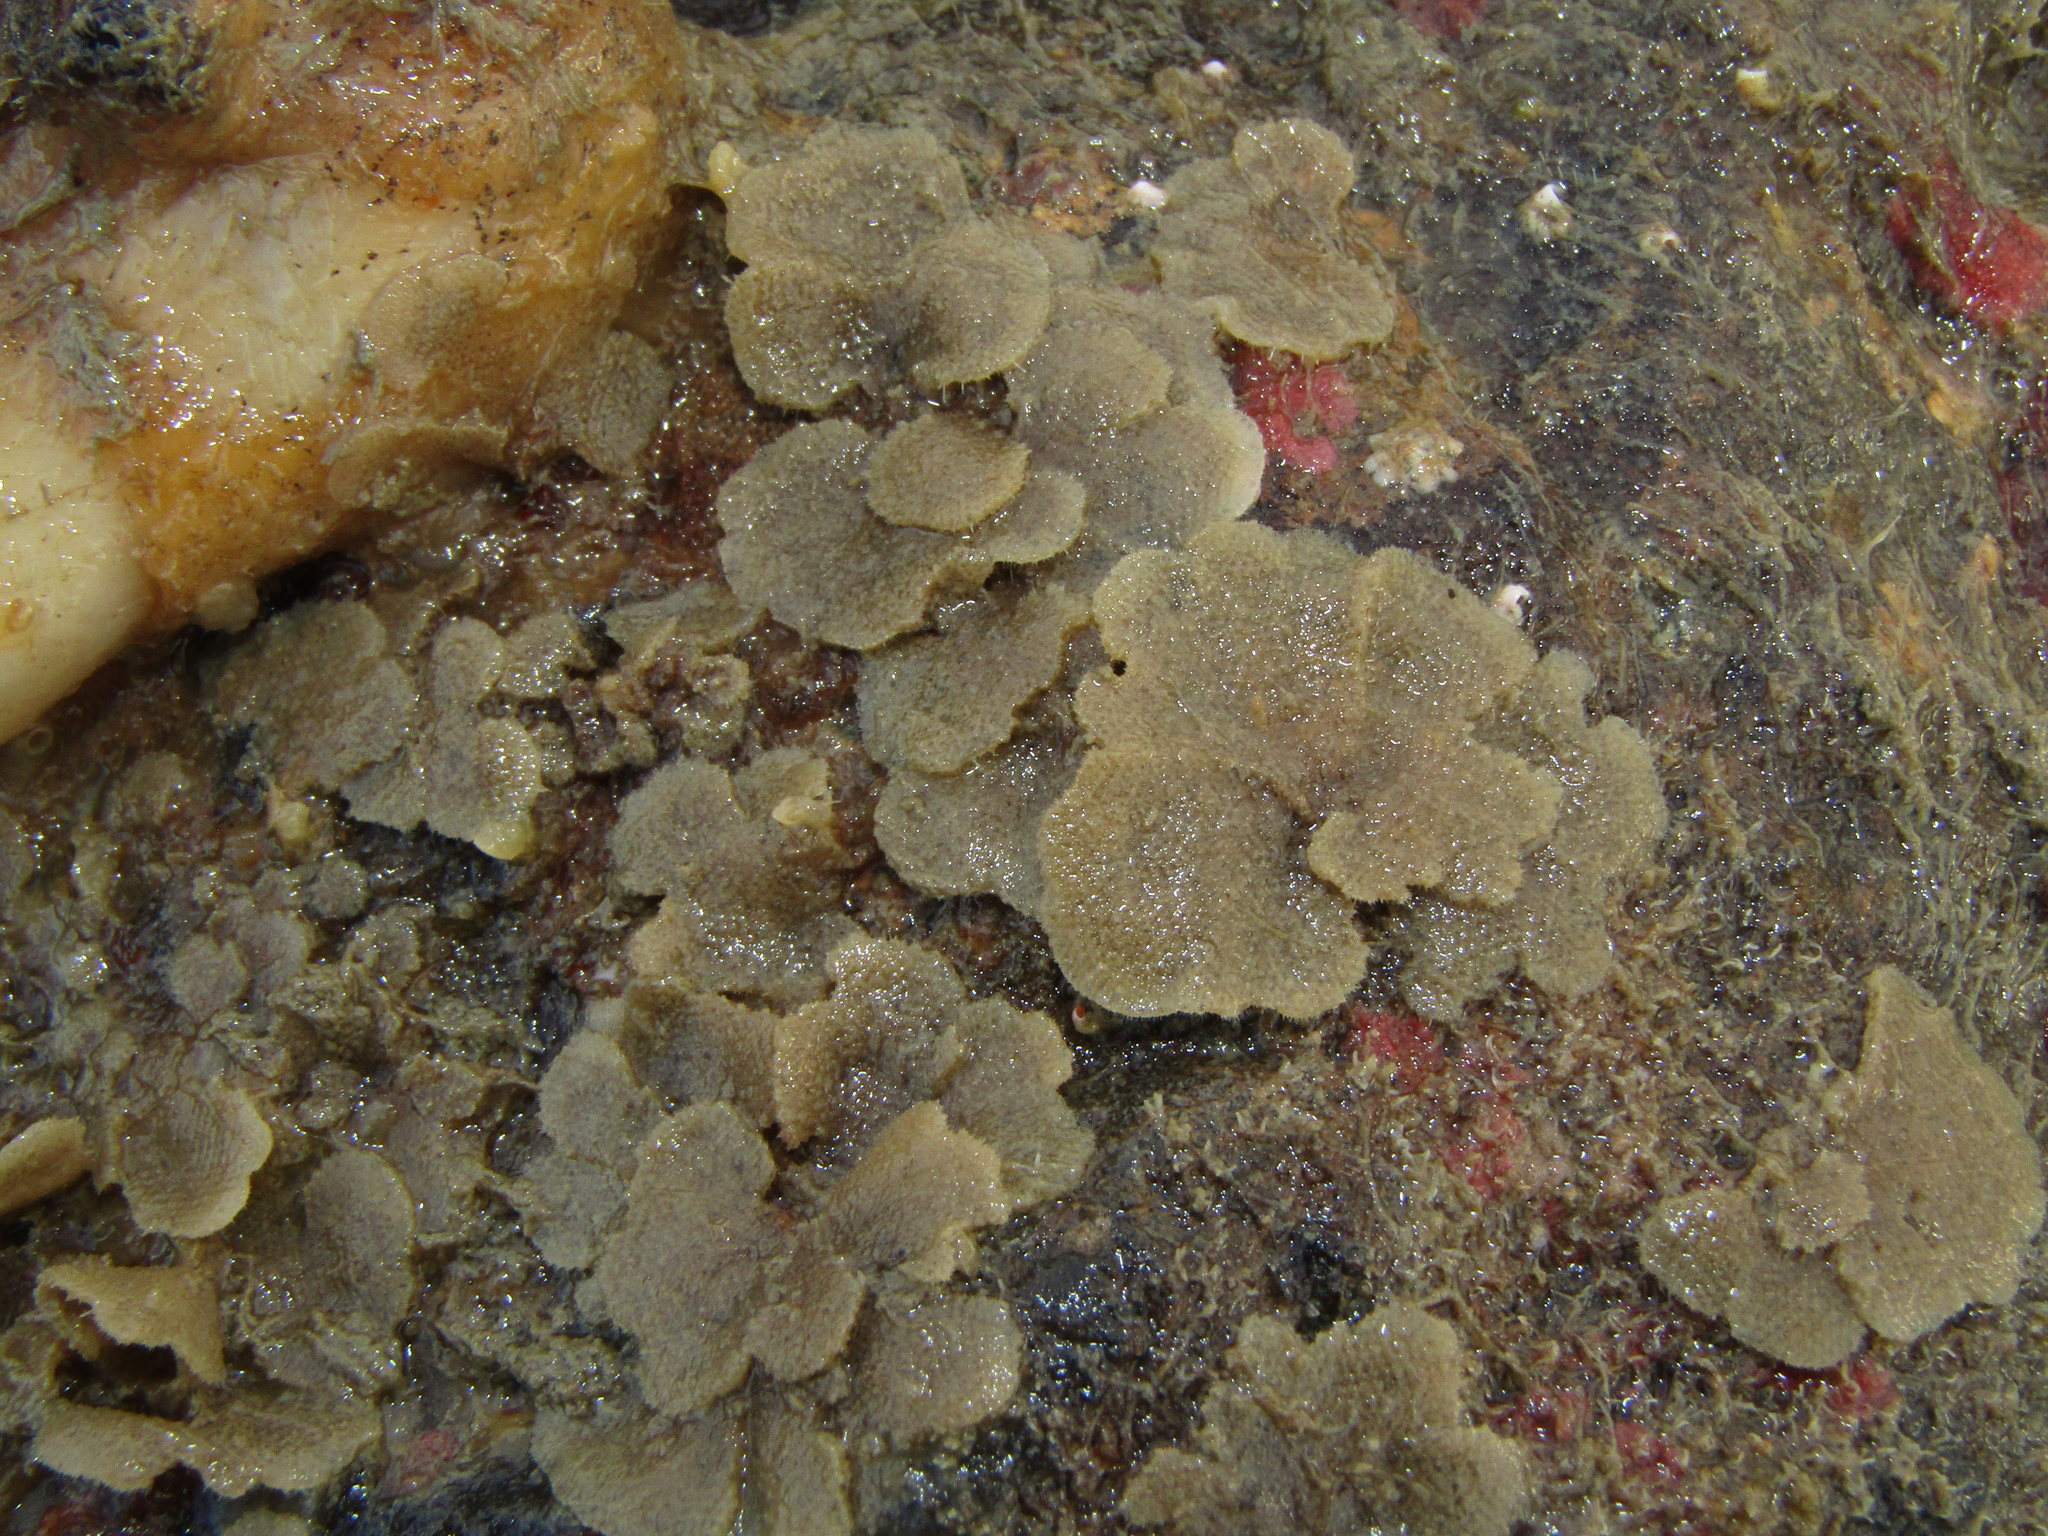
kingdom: Animalia
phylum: Bryozoa
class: Gymnolaemata
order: Cheilostomatida
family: Beaniidae
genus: Beania
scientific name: Beania magellanica
